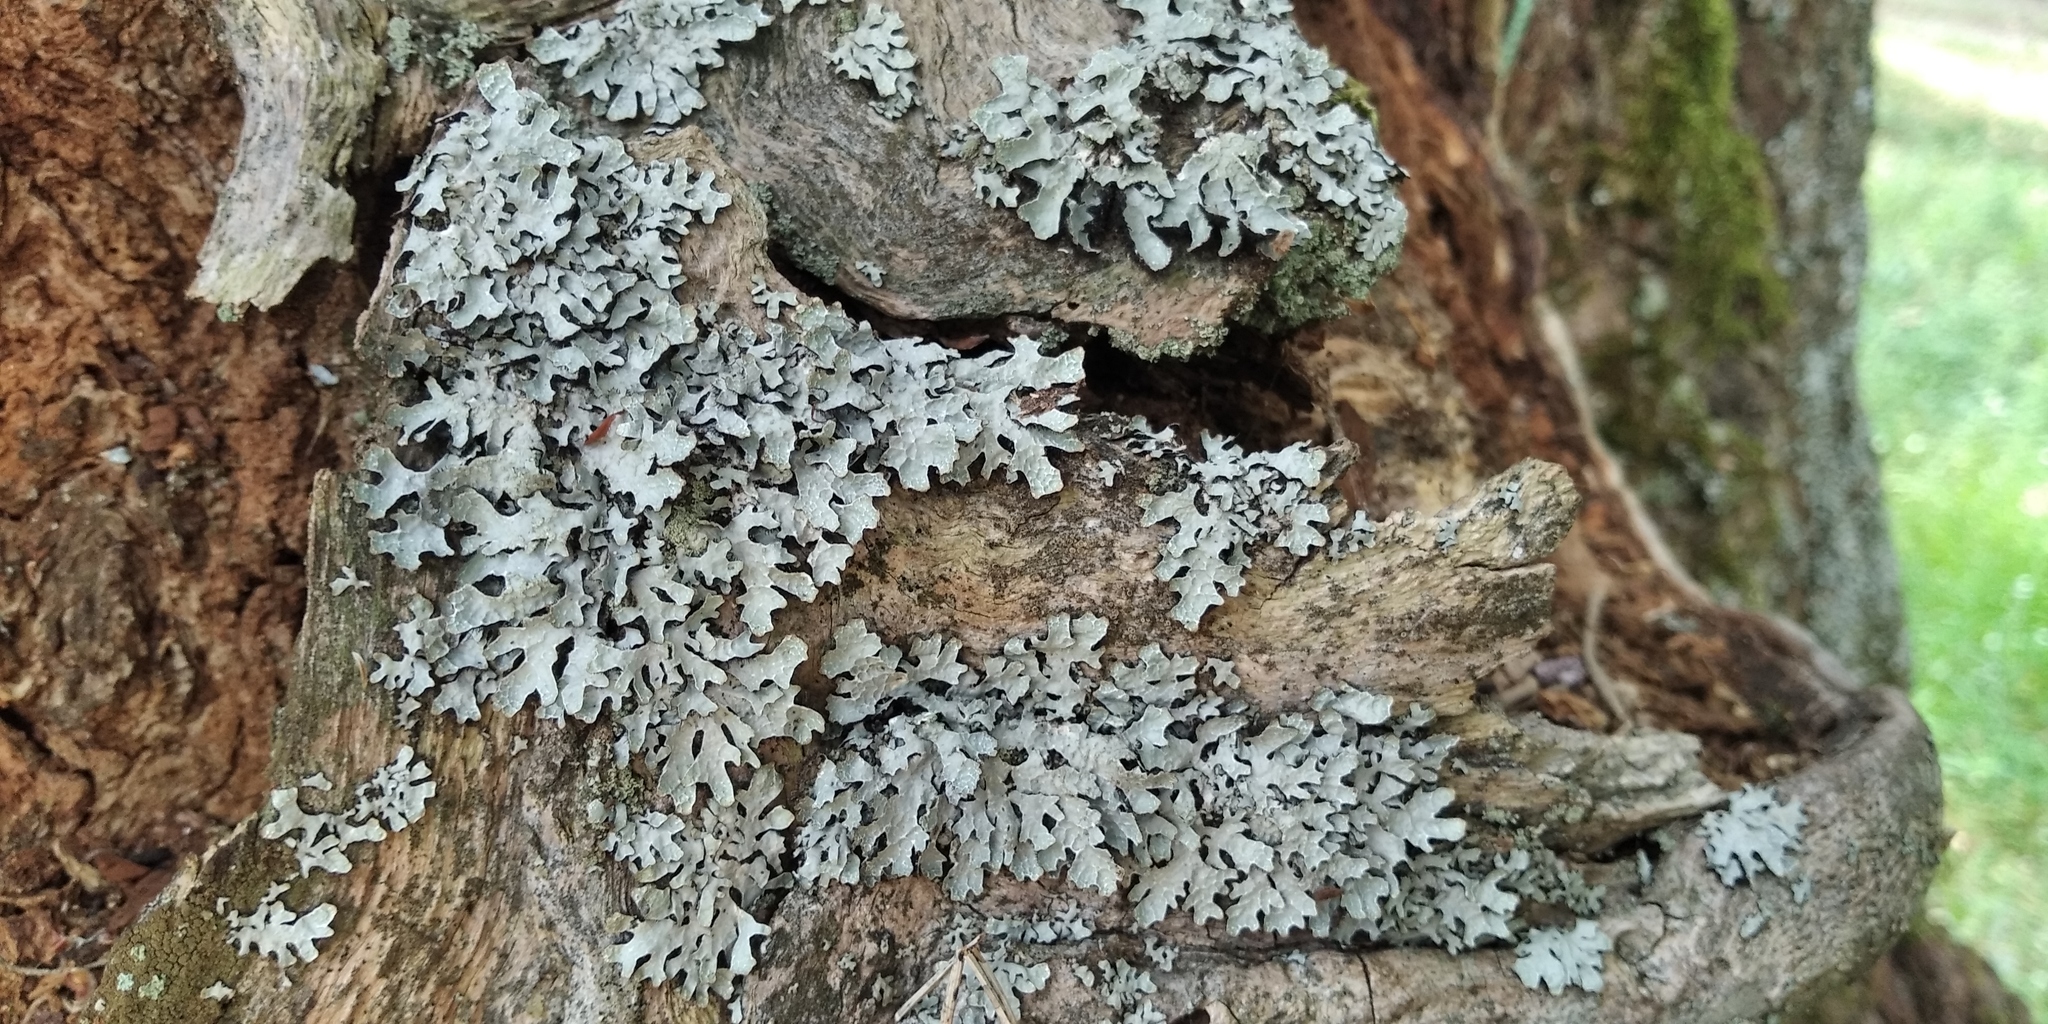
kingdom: Fungi
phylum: Ascomycota
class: Lecanoromycetes
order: Lecanorales
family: Parmeliaceae
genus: Parmelia
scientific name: Parmelia sulcata
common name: Netted shield lichen
